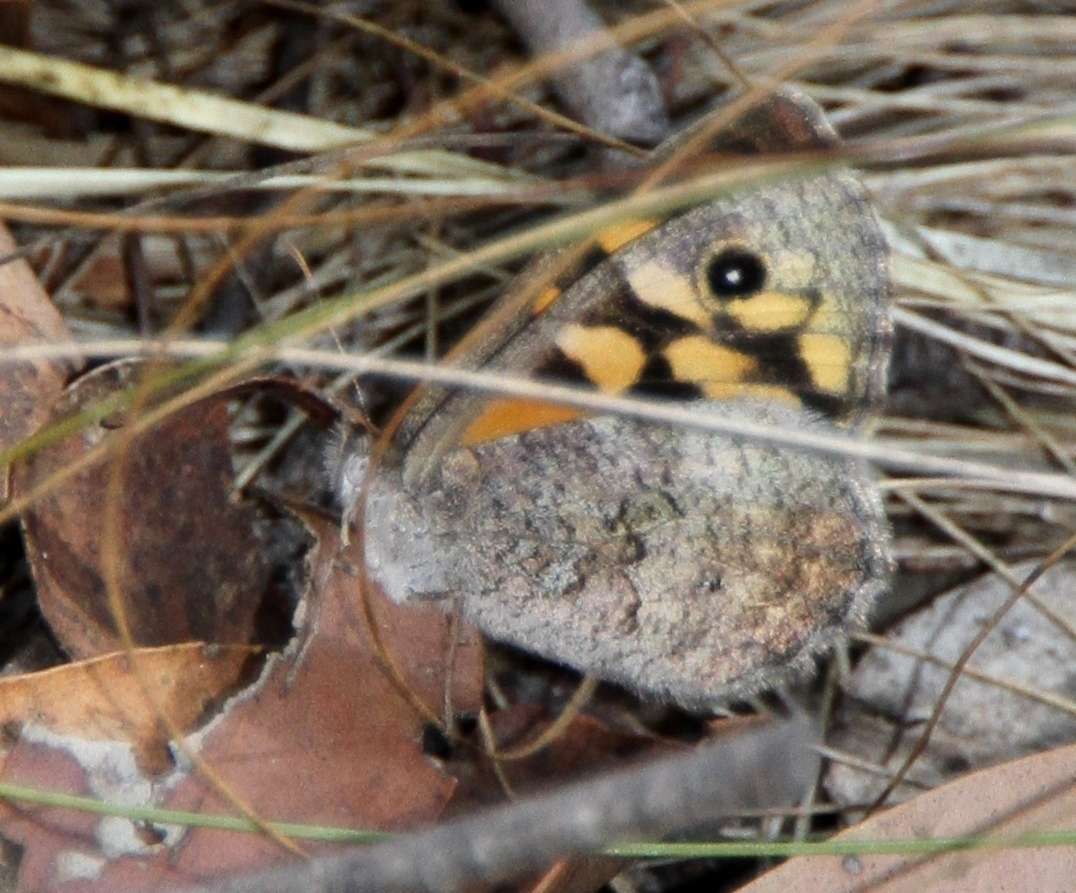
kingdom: Animalia
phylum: Arthropoda
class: Insecta
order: Lepidoptera
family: Nymphalidae
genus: Geitoneura
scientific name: Geitoneura klugii
